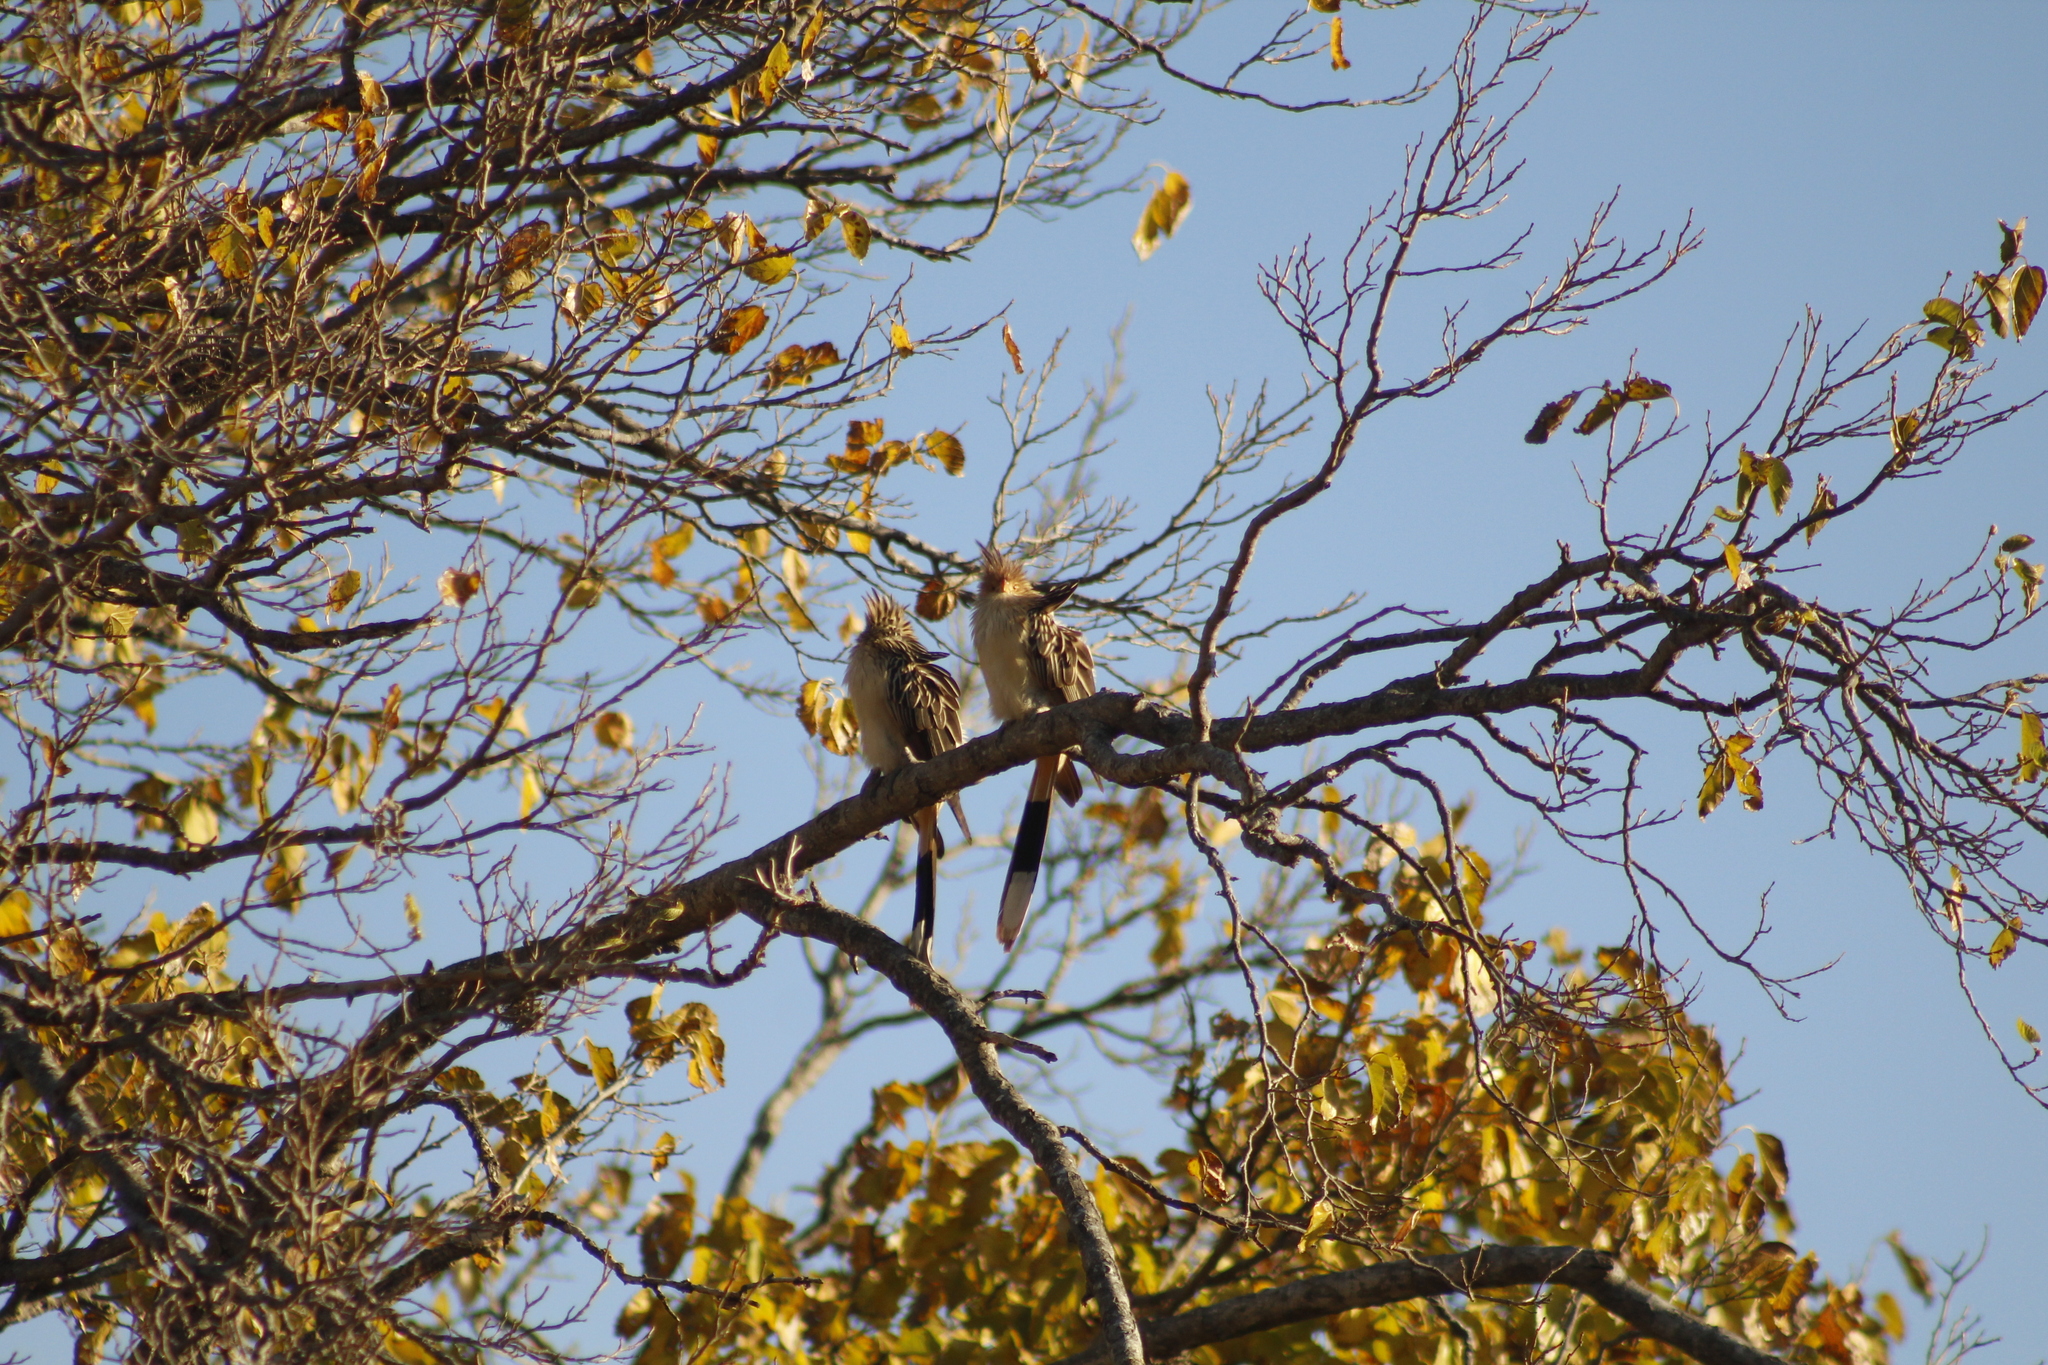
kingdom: Animalia
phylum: Chordata
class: Aves
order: Cuculiformes
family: Cuculidae
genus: Guira
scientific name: Guira guira
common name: Guira cuckoo
